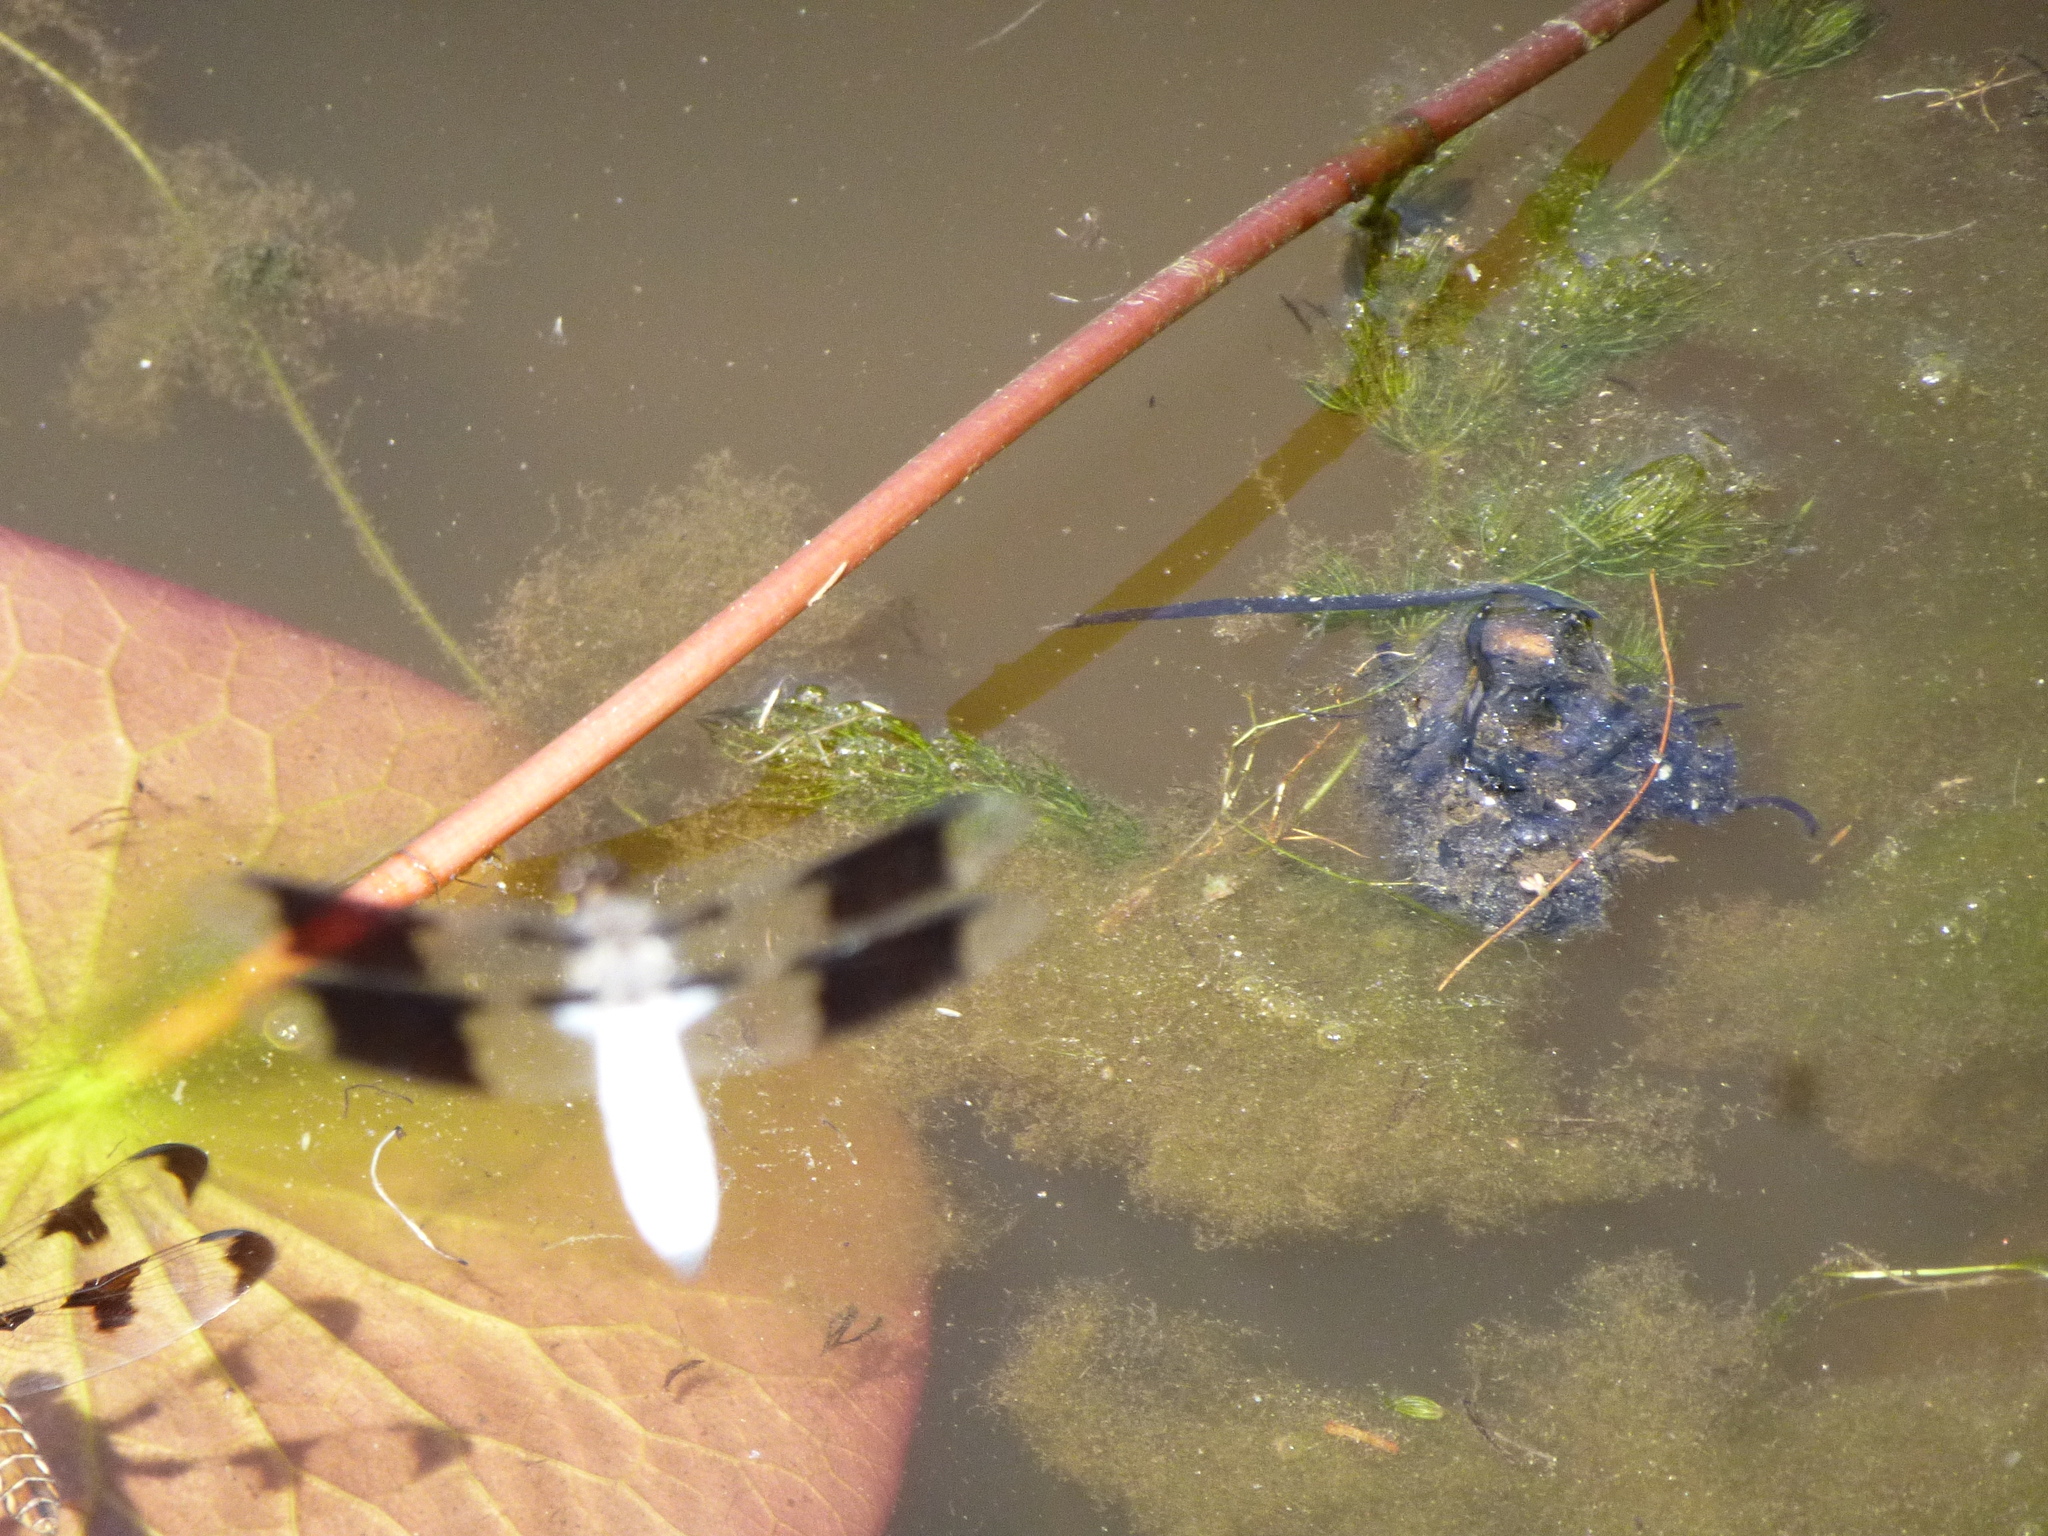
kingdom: Animalia
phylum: Arthropoda
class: Insecta
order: Odonata
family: Libellulidae
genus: Plathemis
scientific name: Plathemis lydia
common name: Common whitetail
